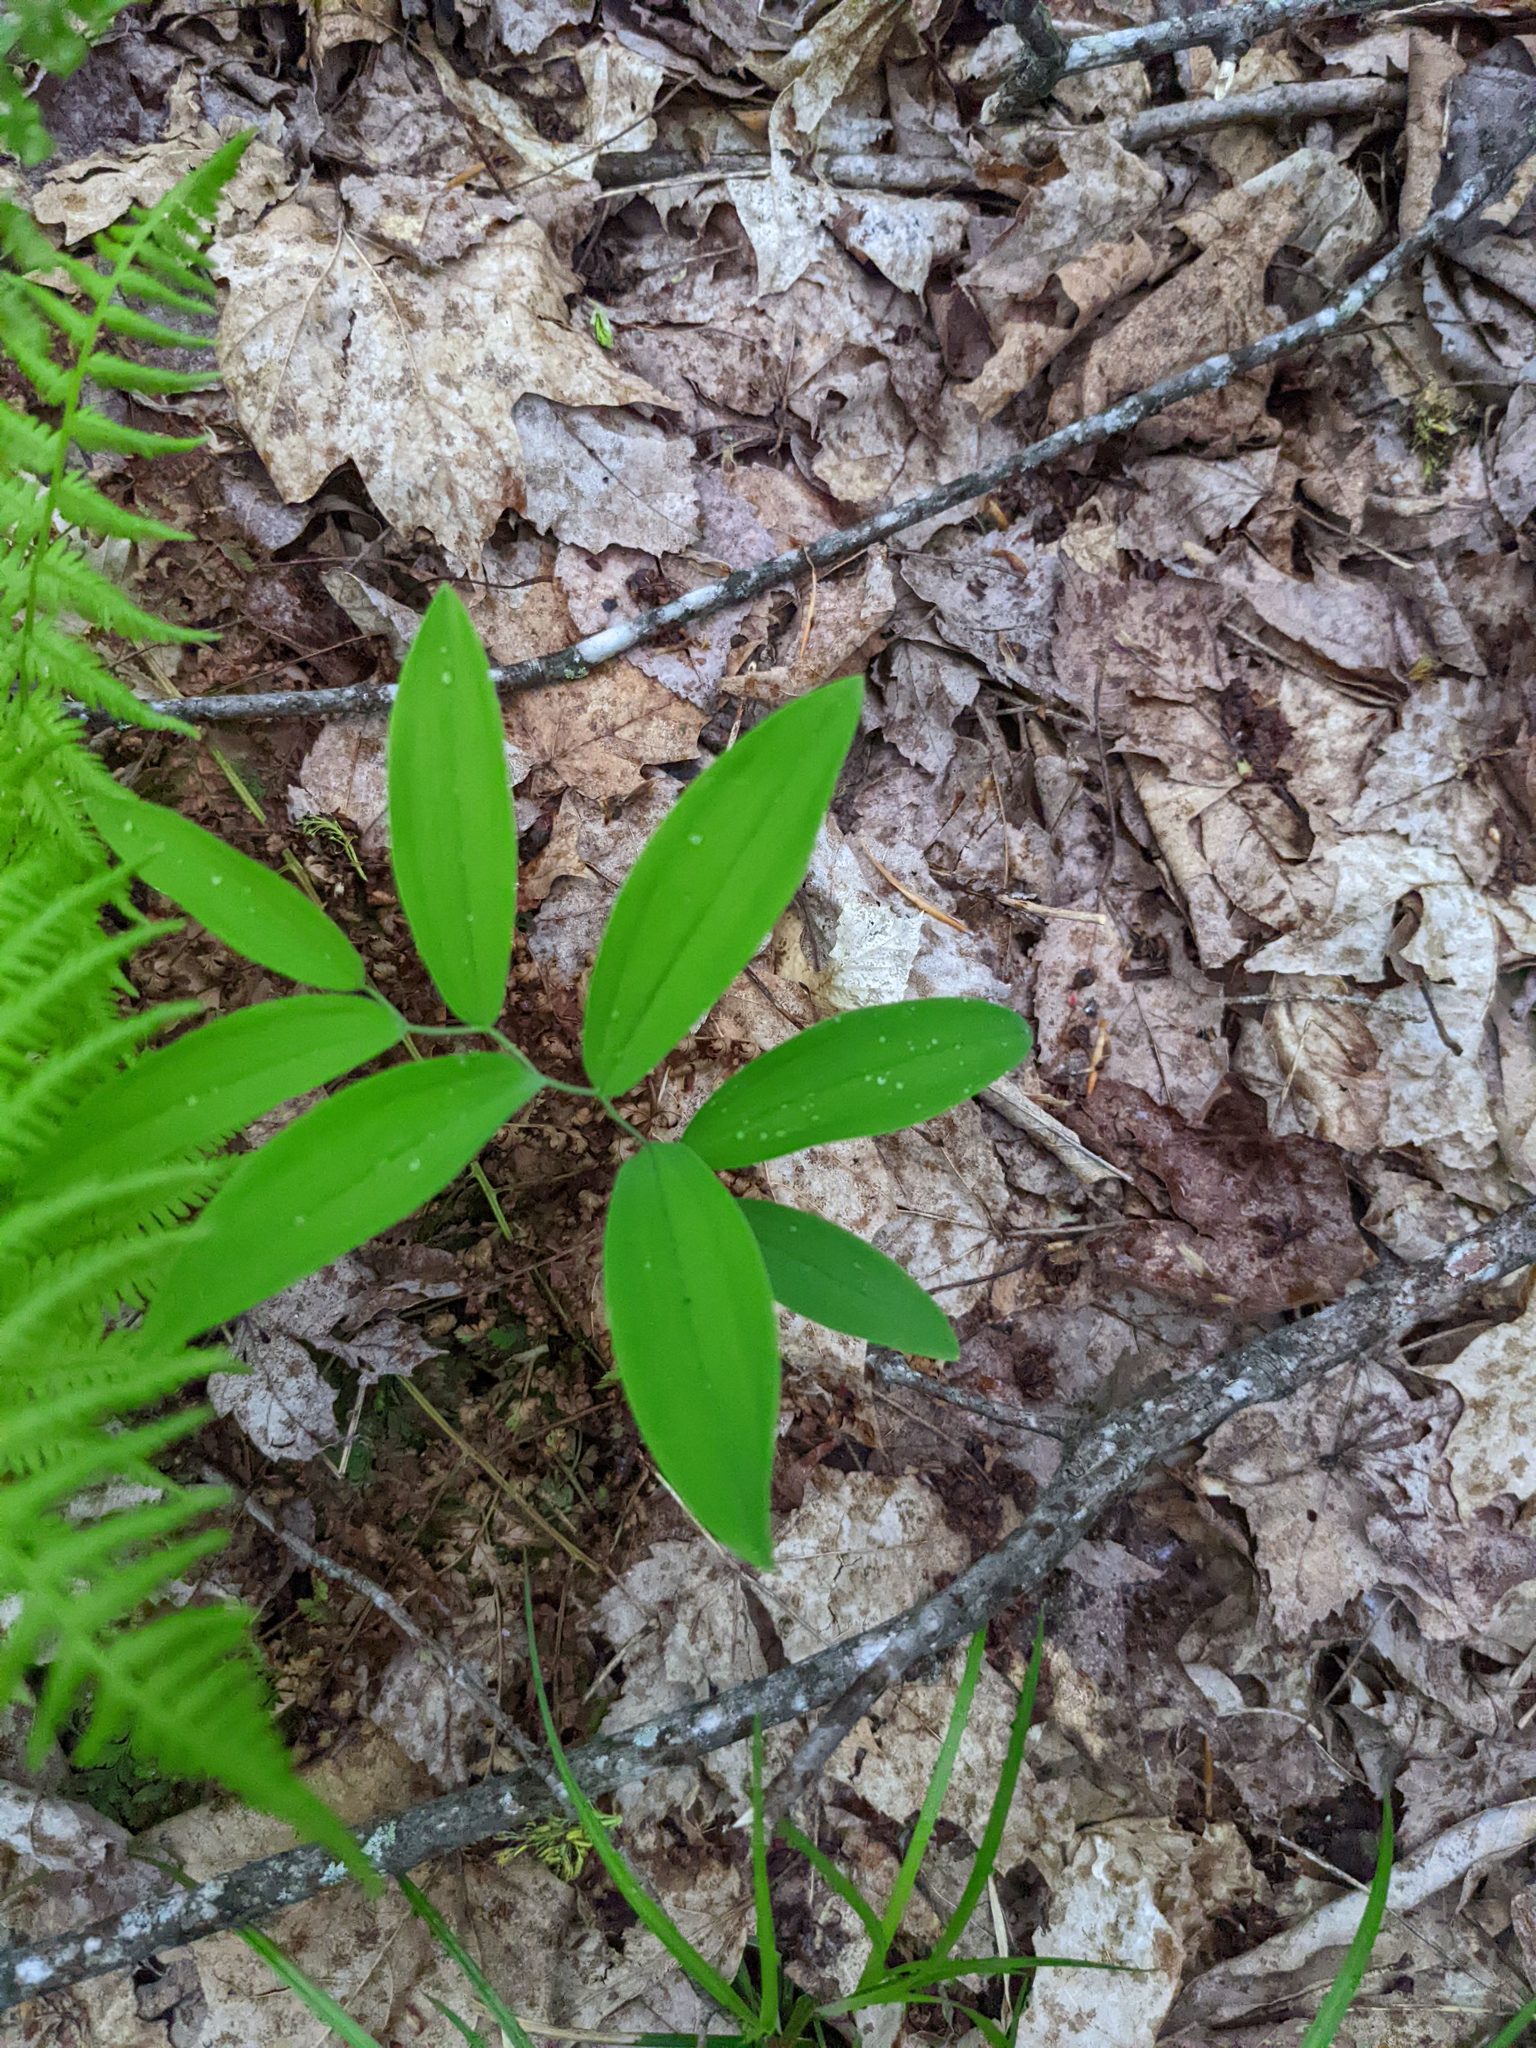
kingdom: Plantae
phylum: Tracheophyta
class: Liliopsida
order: Liliales
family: Colchicaceae
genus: Uvularia
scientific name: Uvularia sessilifolia
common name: Straw-lily
